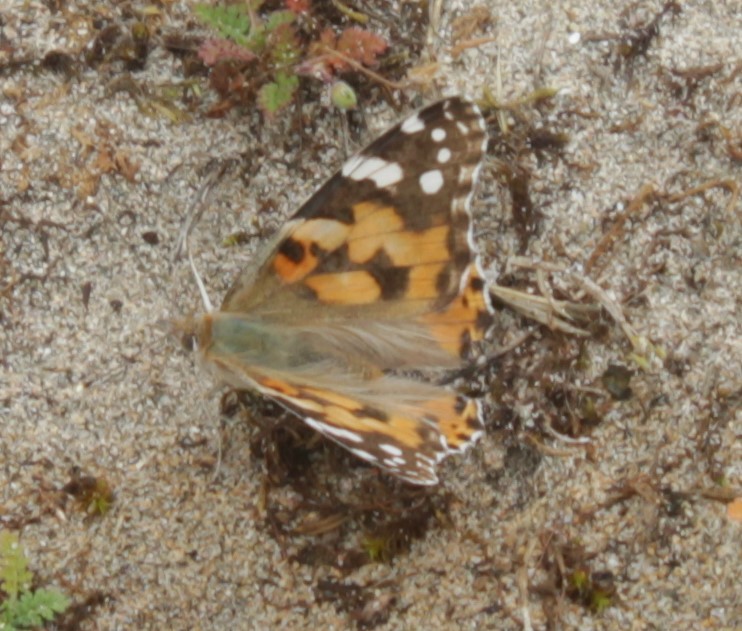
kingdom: Animalia
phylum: Arthropoda
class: Insecta
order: Lepidoptera
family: Nymphalidae
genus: Vanessa
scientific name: Vanessa cardui
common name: Painted lady
